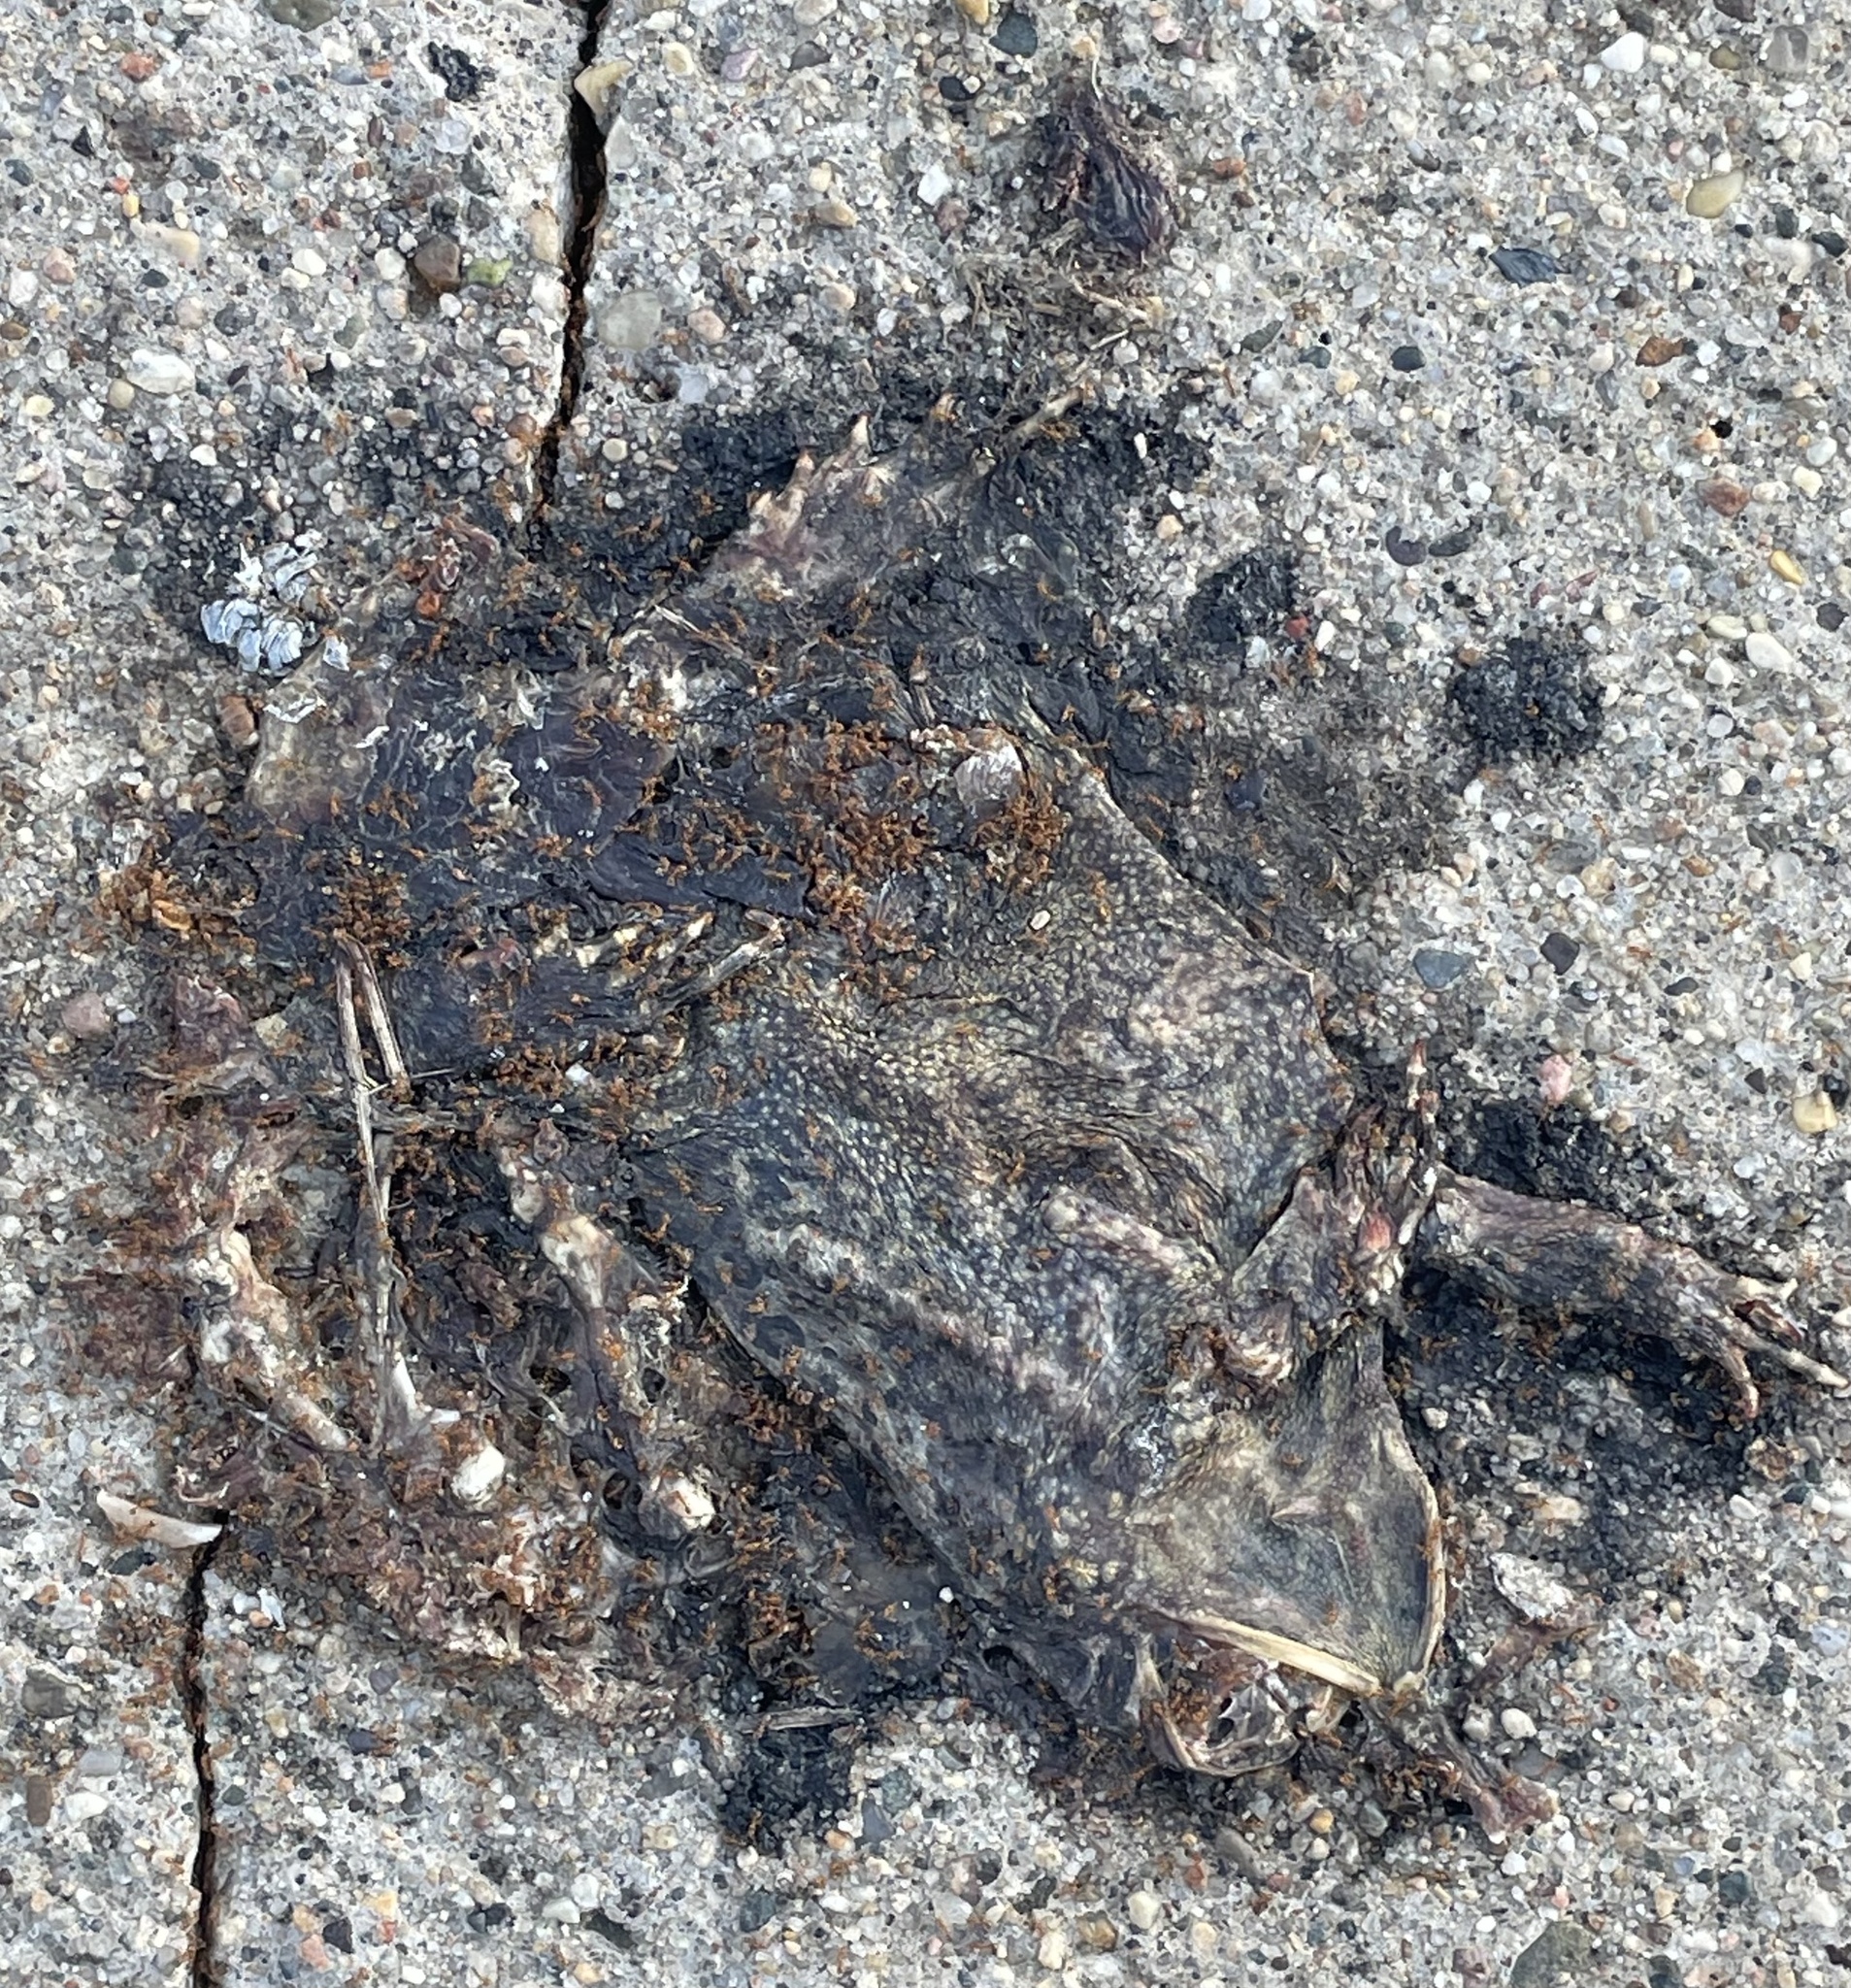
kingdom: Animalia
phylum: Chordata
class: Amphibia
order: Anura
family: Bufonidae
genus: Anaxyrus
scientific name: Anaxyrus americanus
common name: American toad
